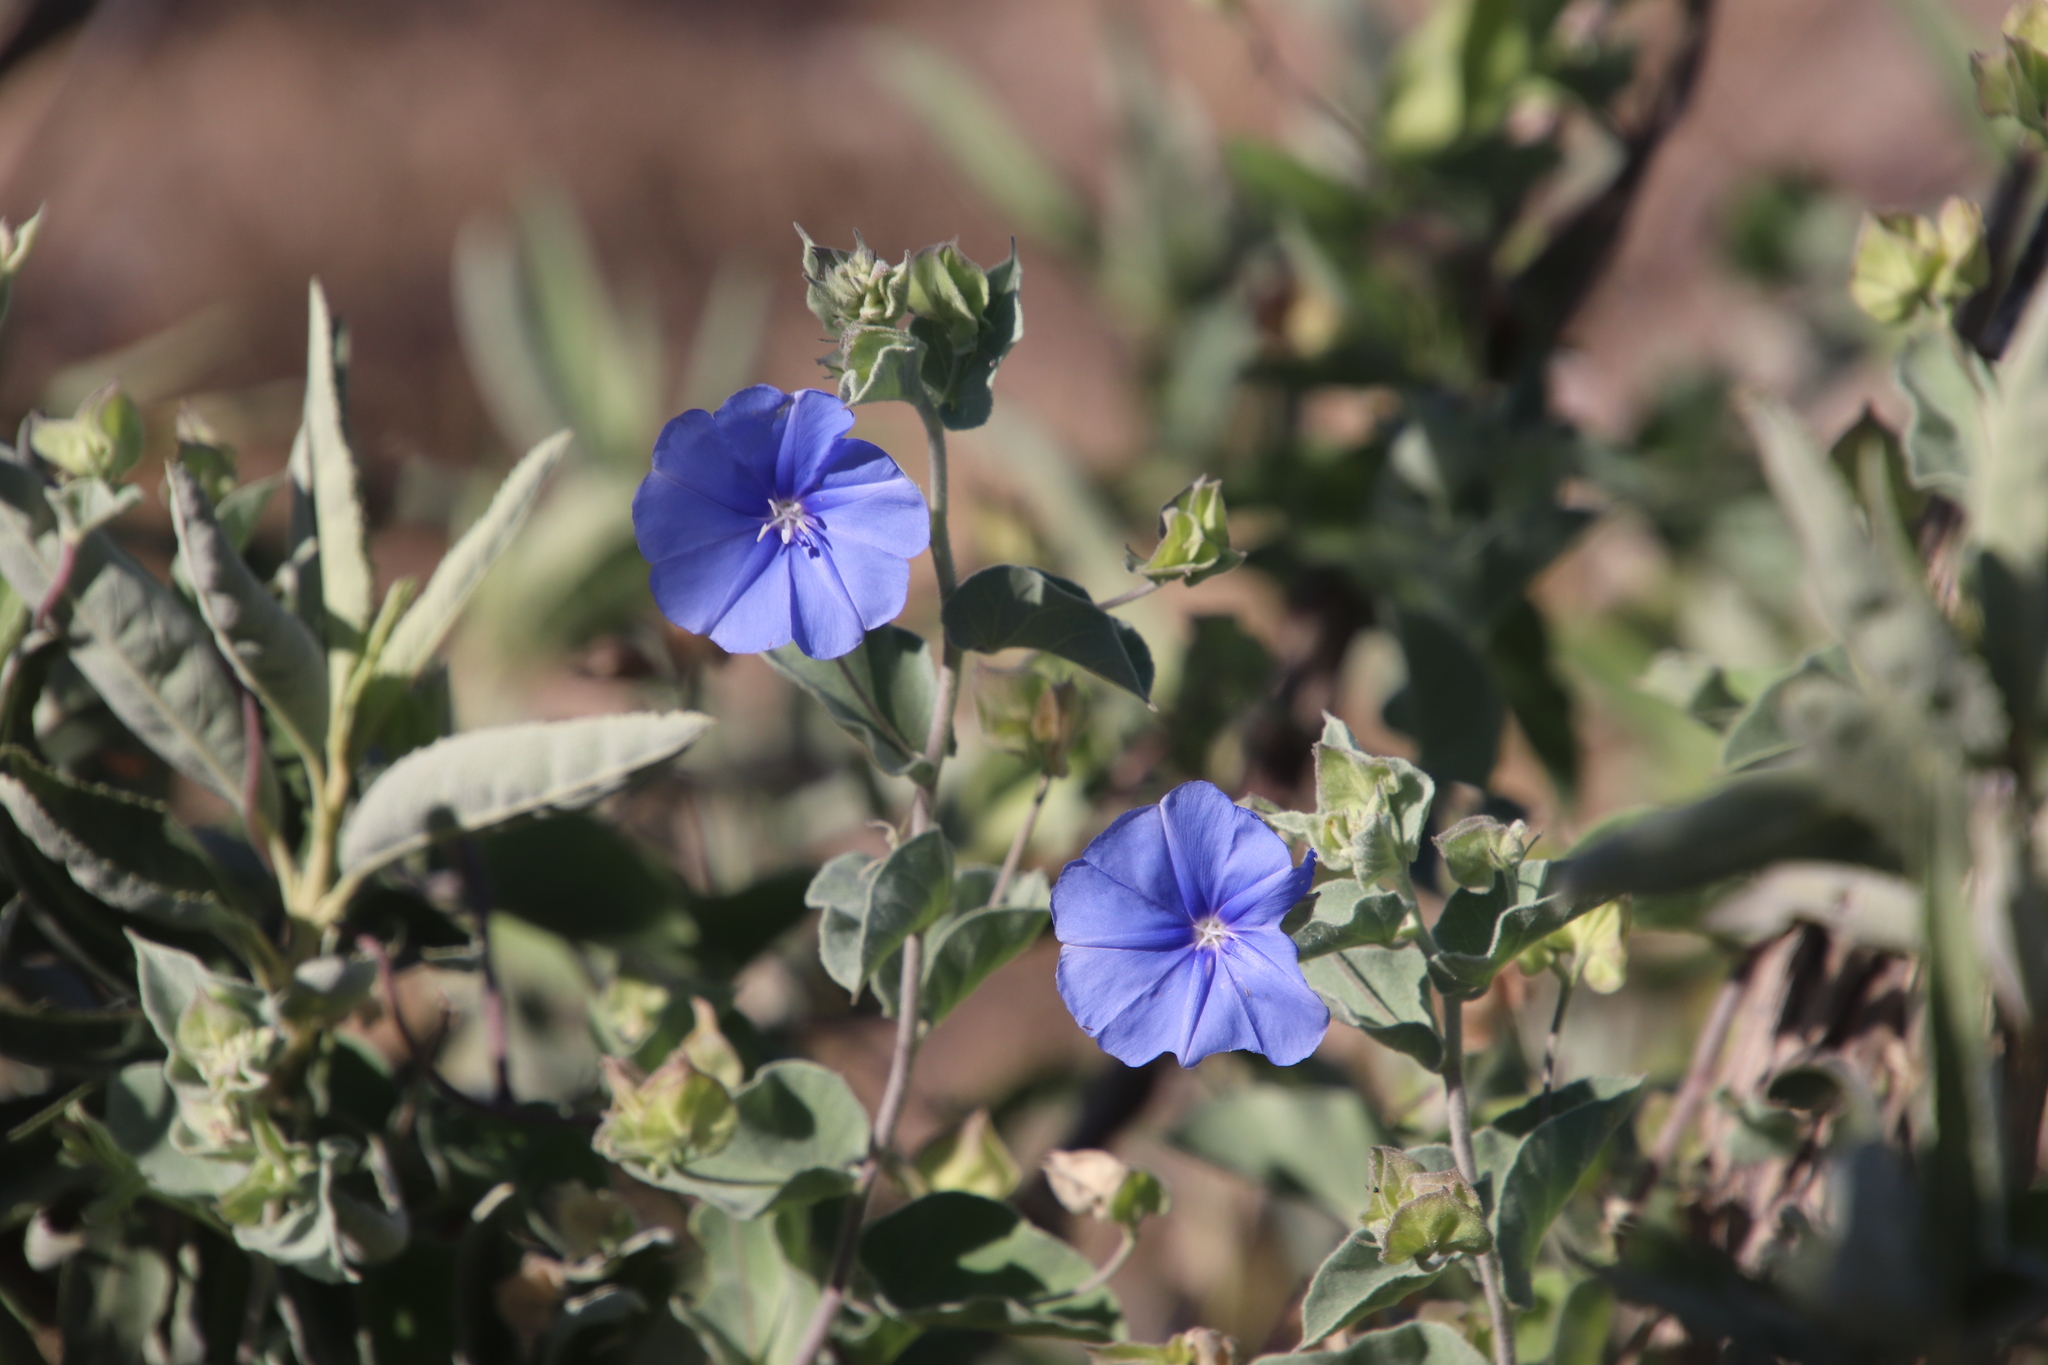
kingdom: Plantae
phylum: Tracheophyta
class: Magnoliopsida
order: Solanales
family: Convolvulaceae
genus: Jacquemontia
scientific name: Jacquemontia abutiloides
